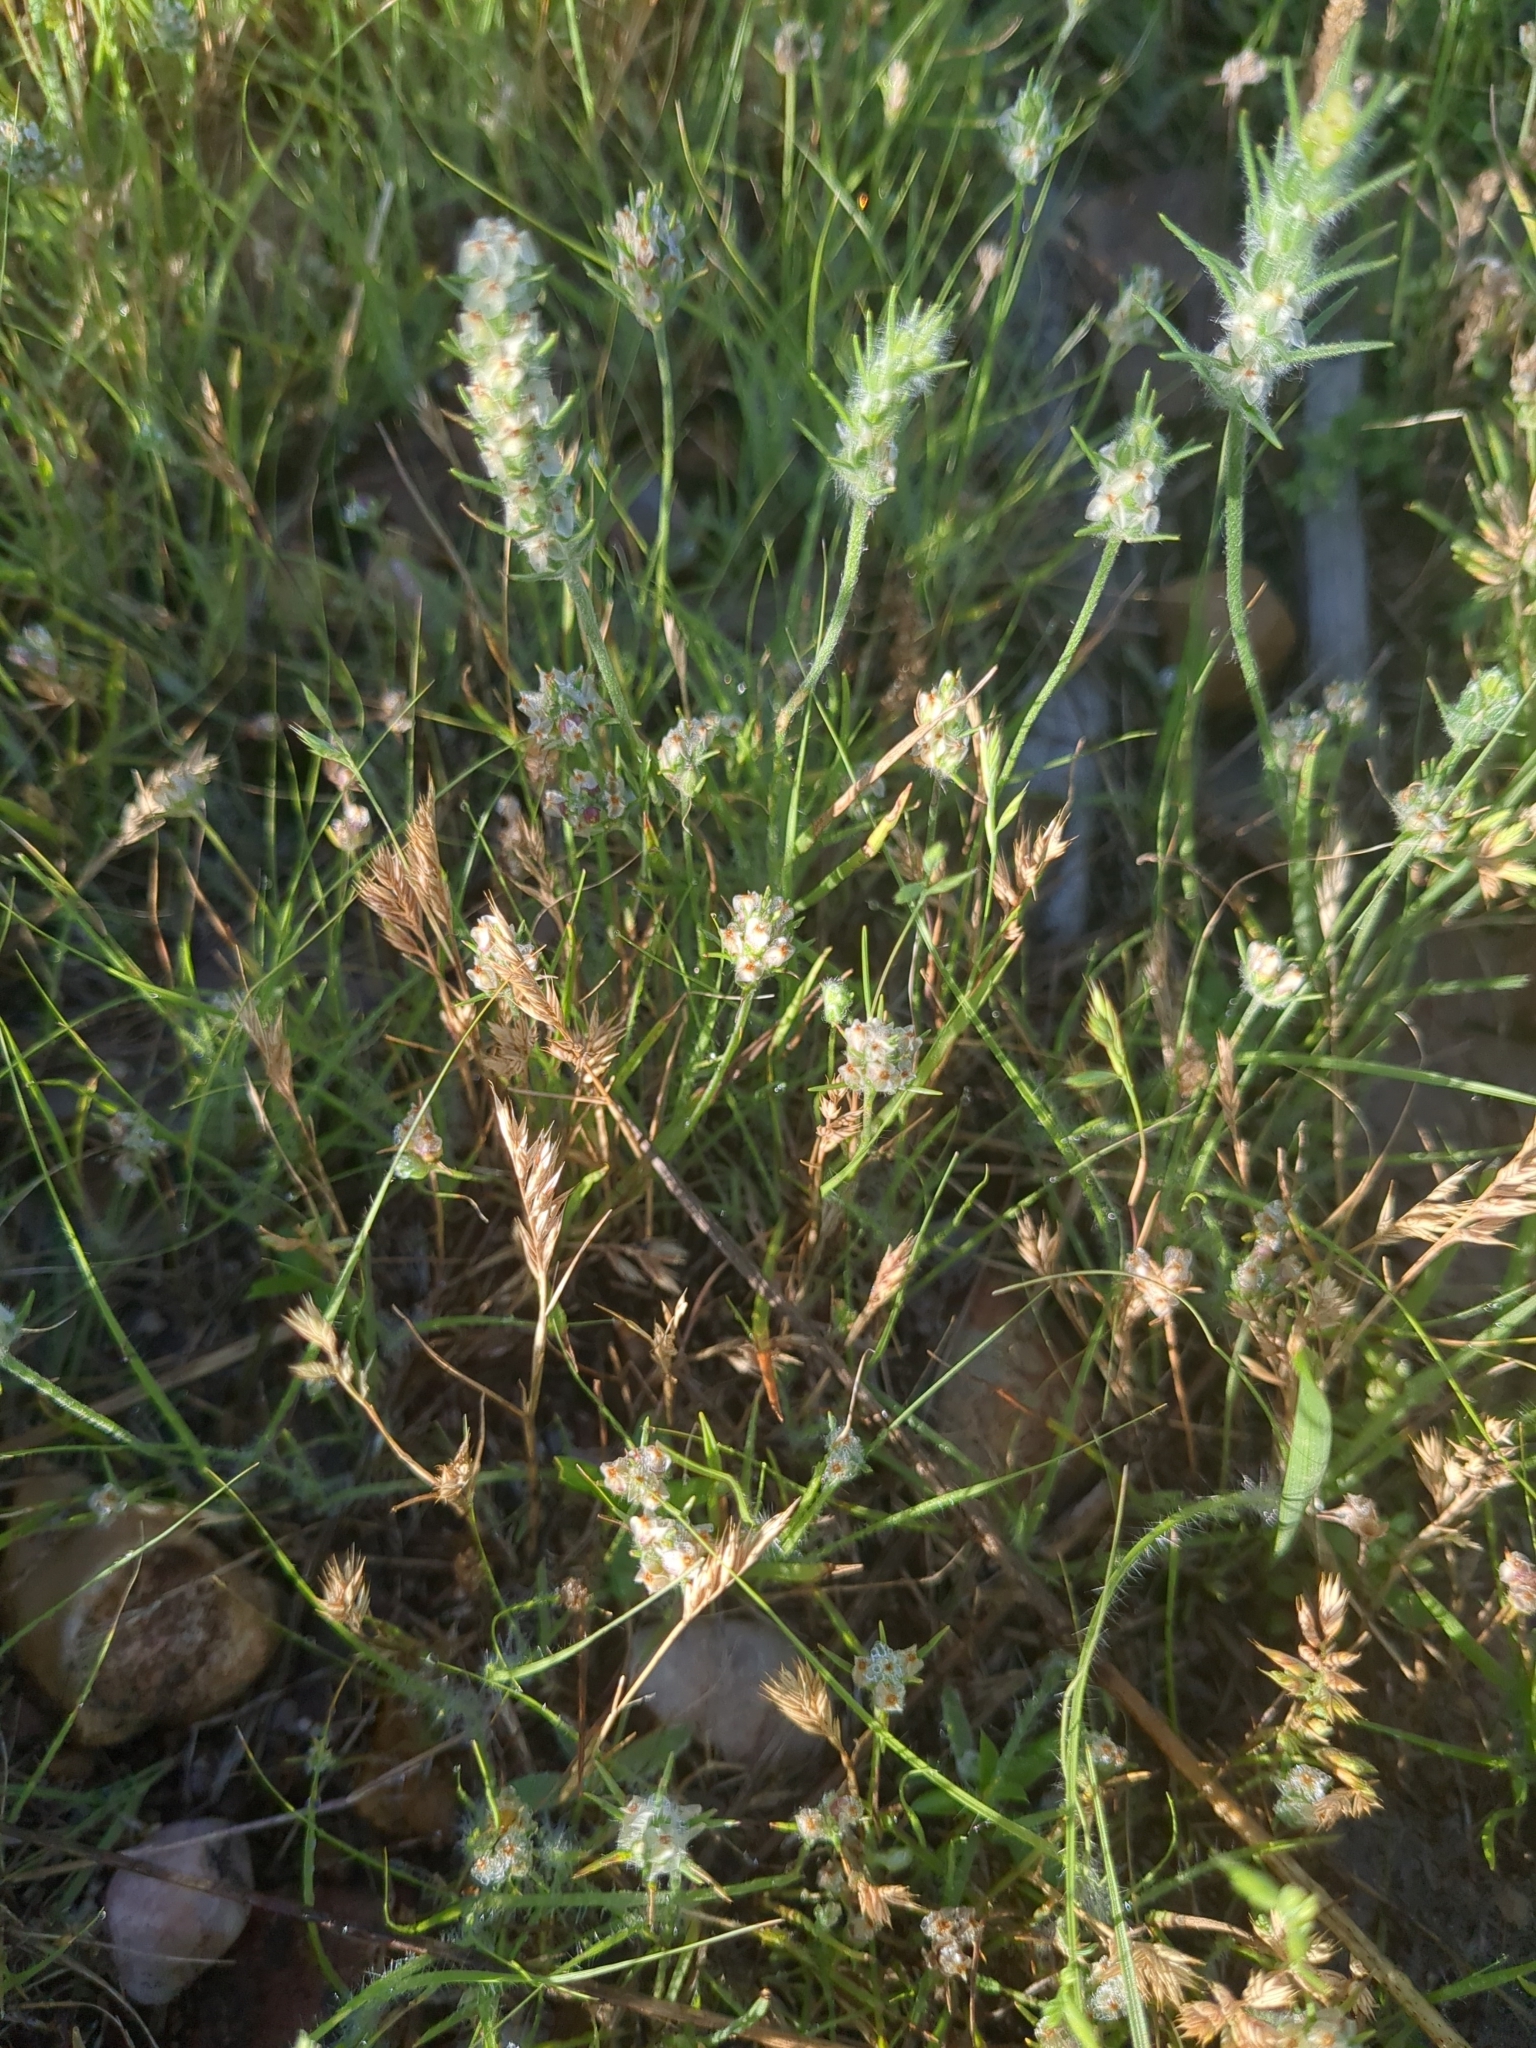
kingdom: Plantae
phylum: Tracheophyta
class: Magnoliopsida
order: Lamiales
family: Plantaginaceae
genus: Plantago
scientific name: Plantago aristata
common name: Bracted plantain
